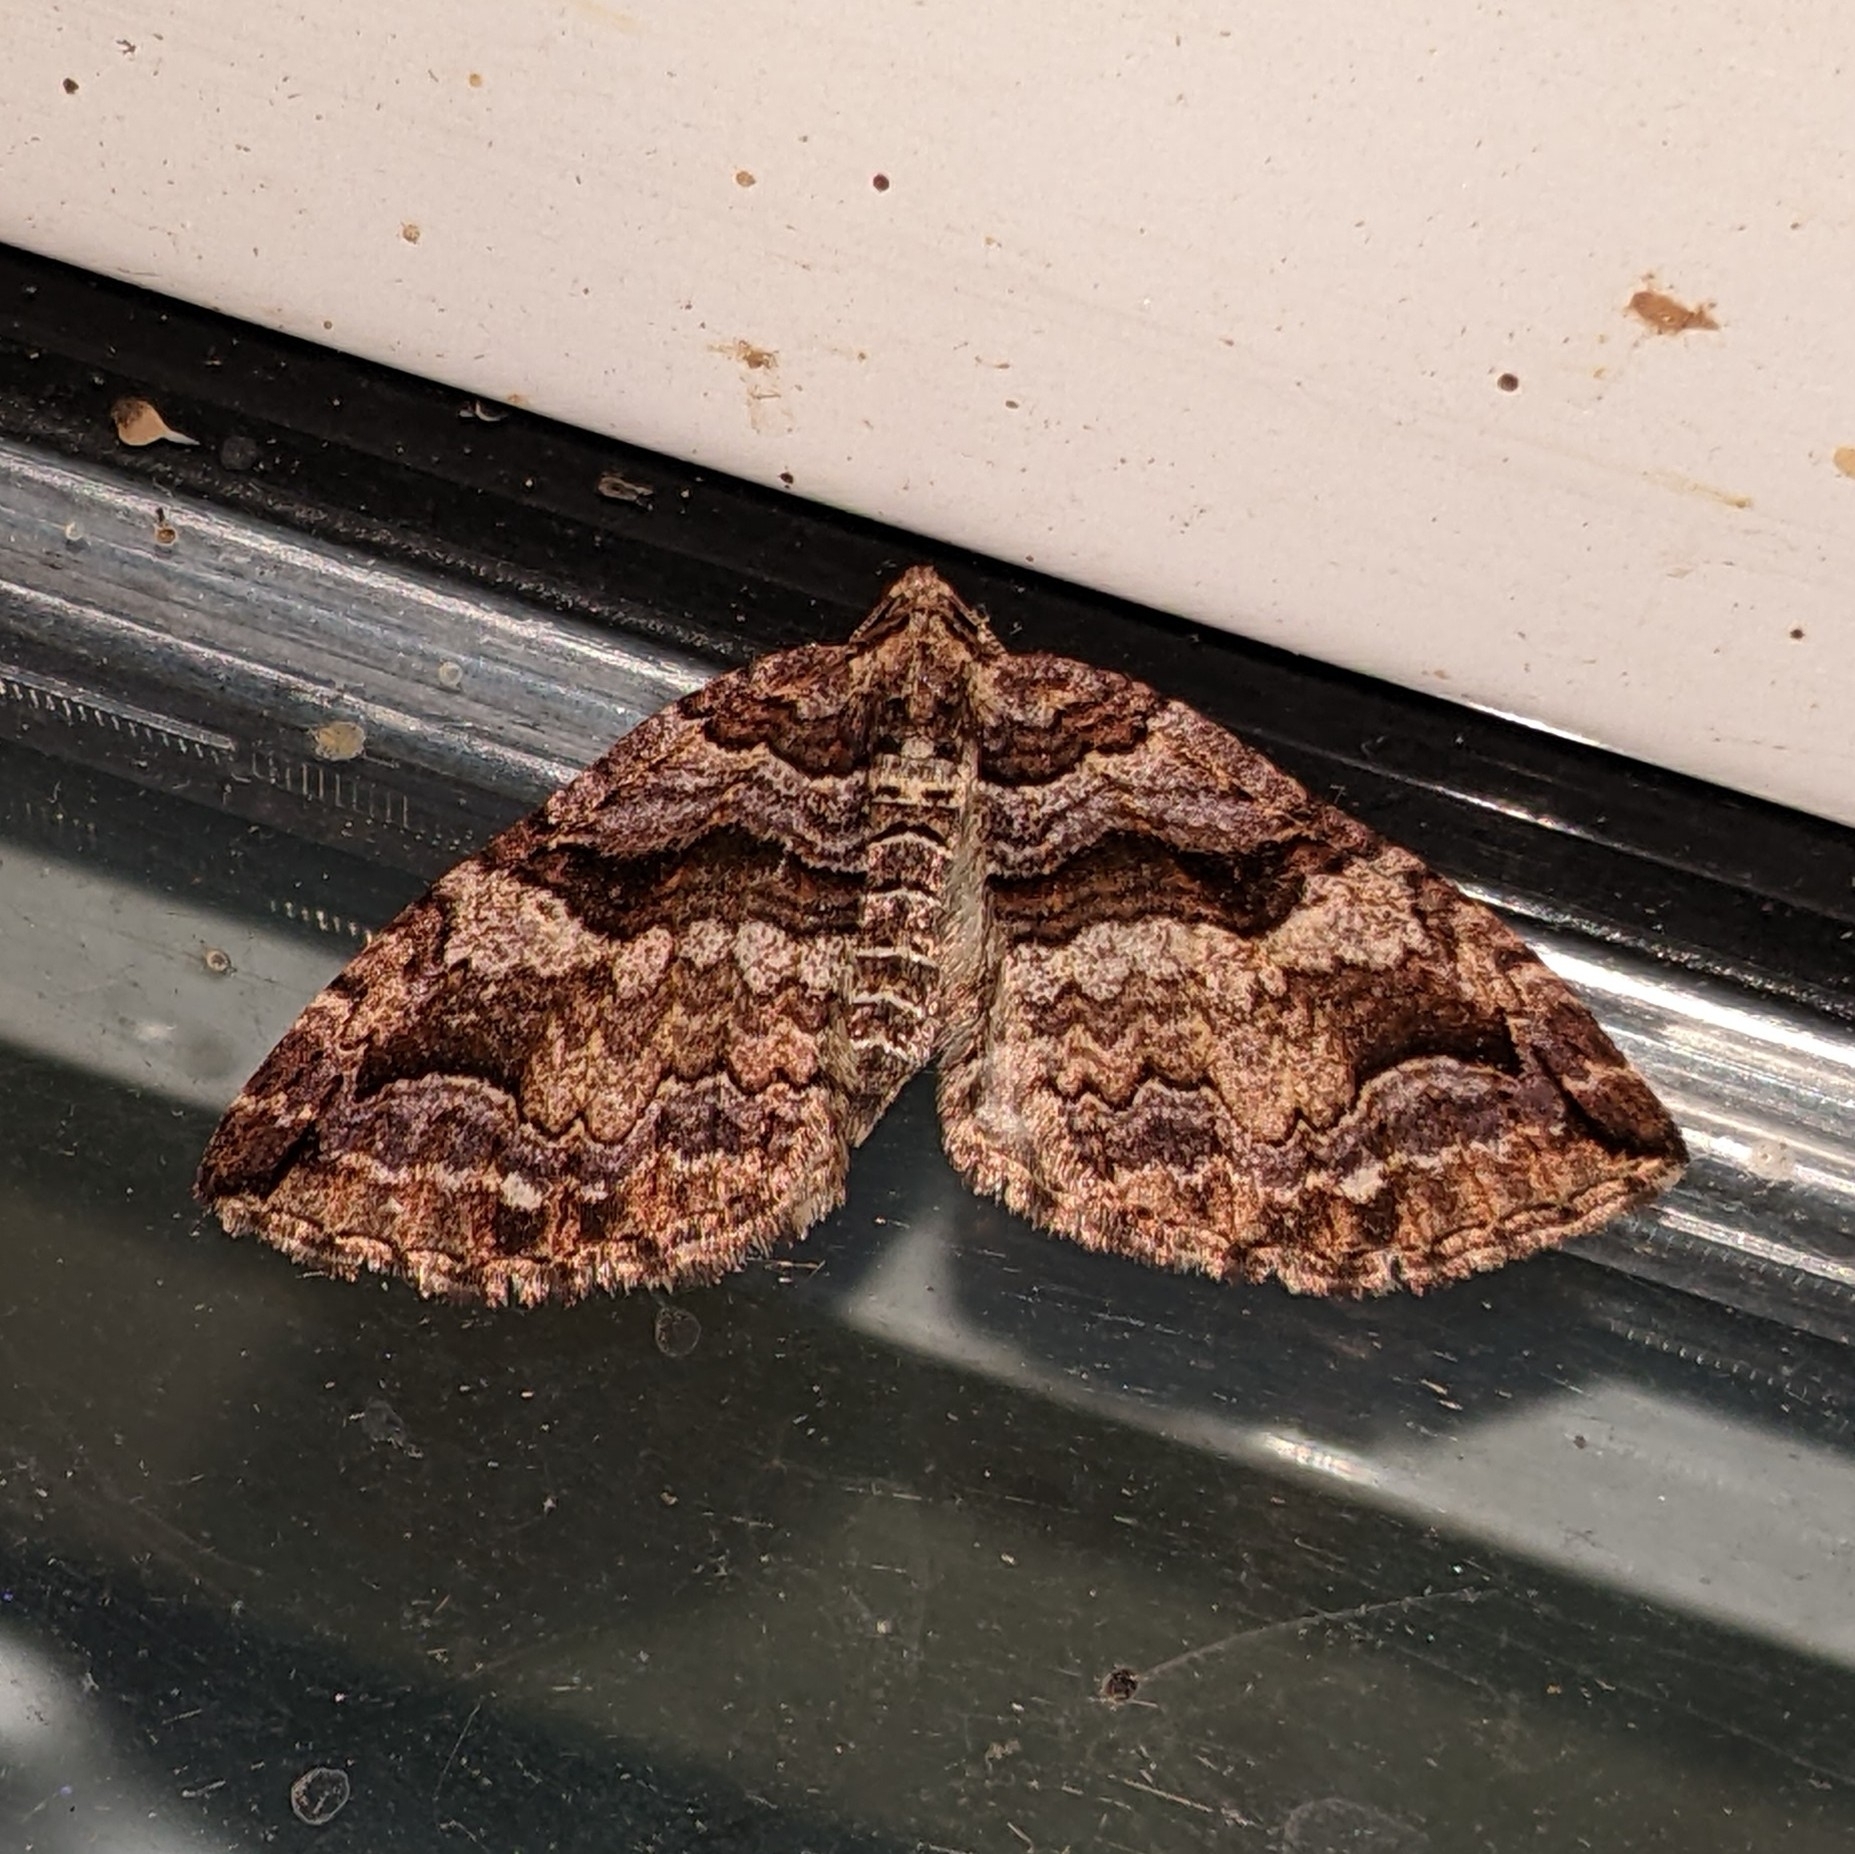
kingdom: Animalia
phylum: Arthropoda
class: Insecta
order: Lepidoptera
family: Geometridae
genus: Anticlea
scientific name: Anticlea vasiliata
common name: Variable carpet
